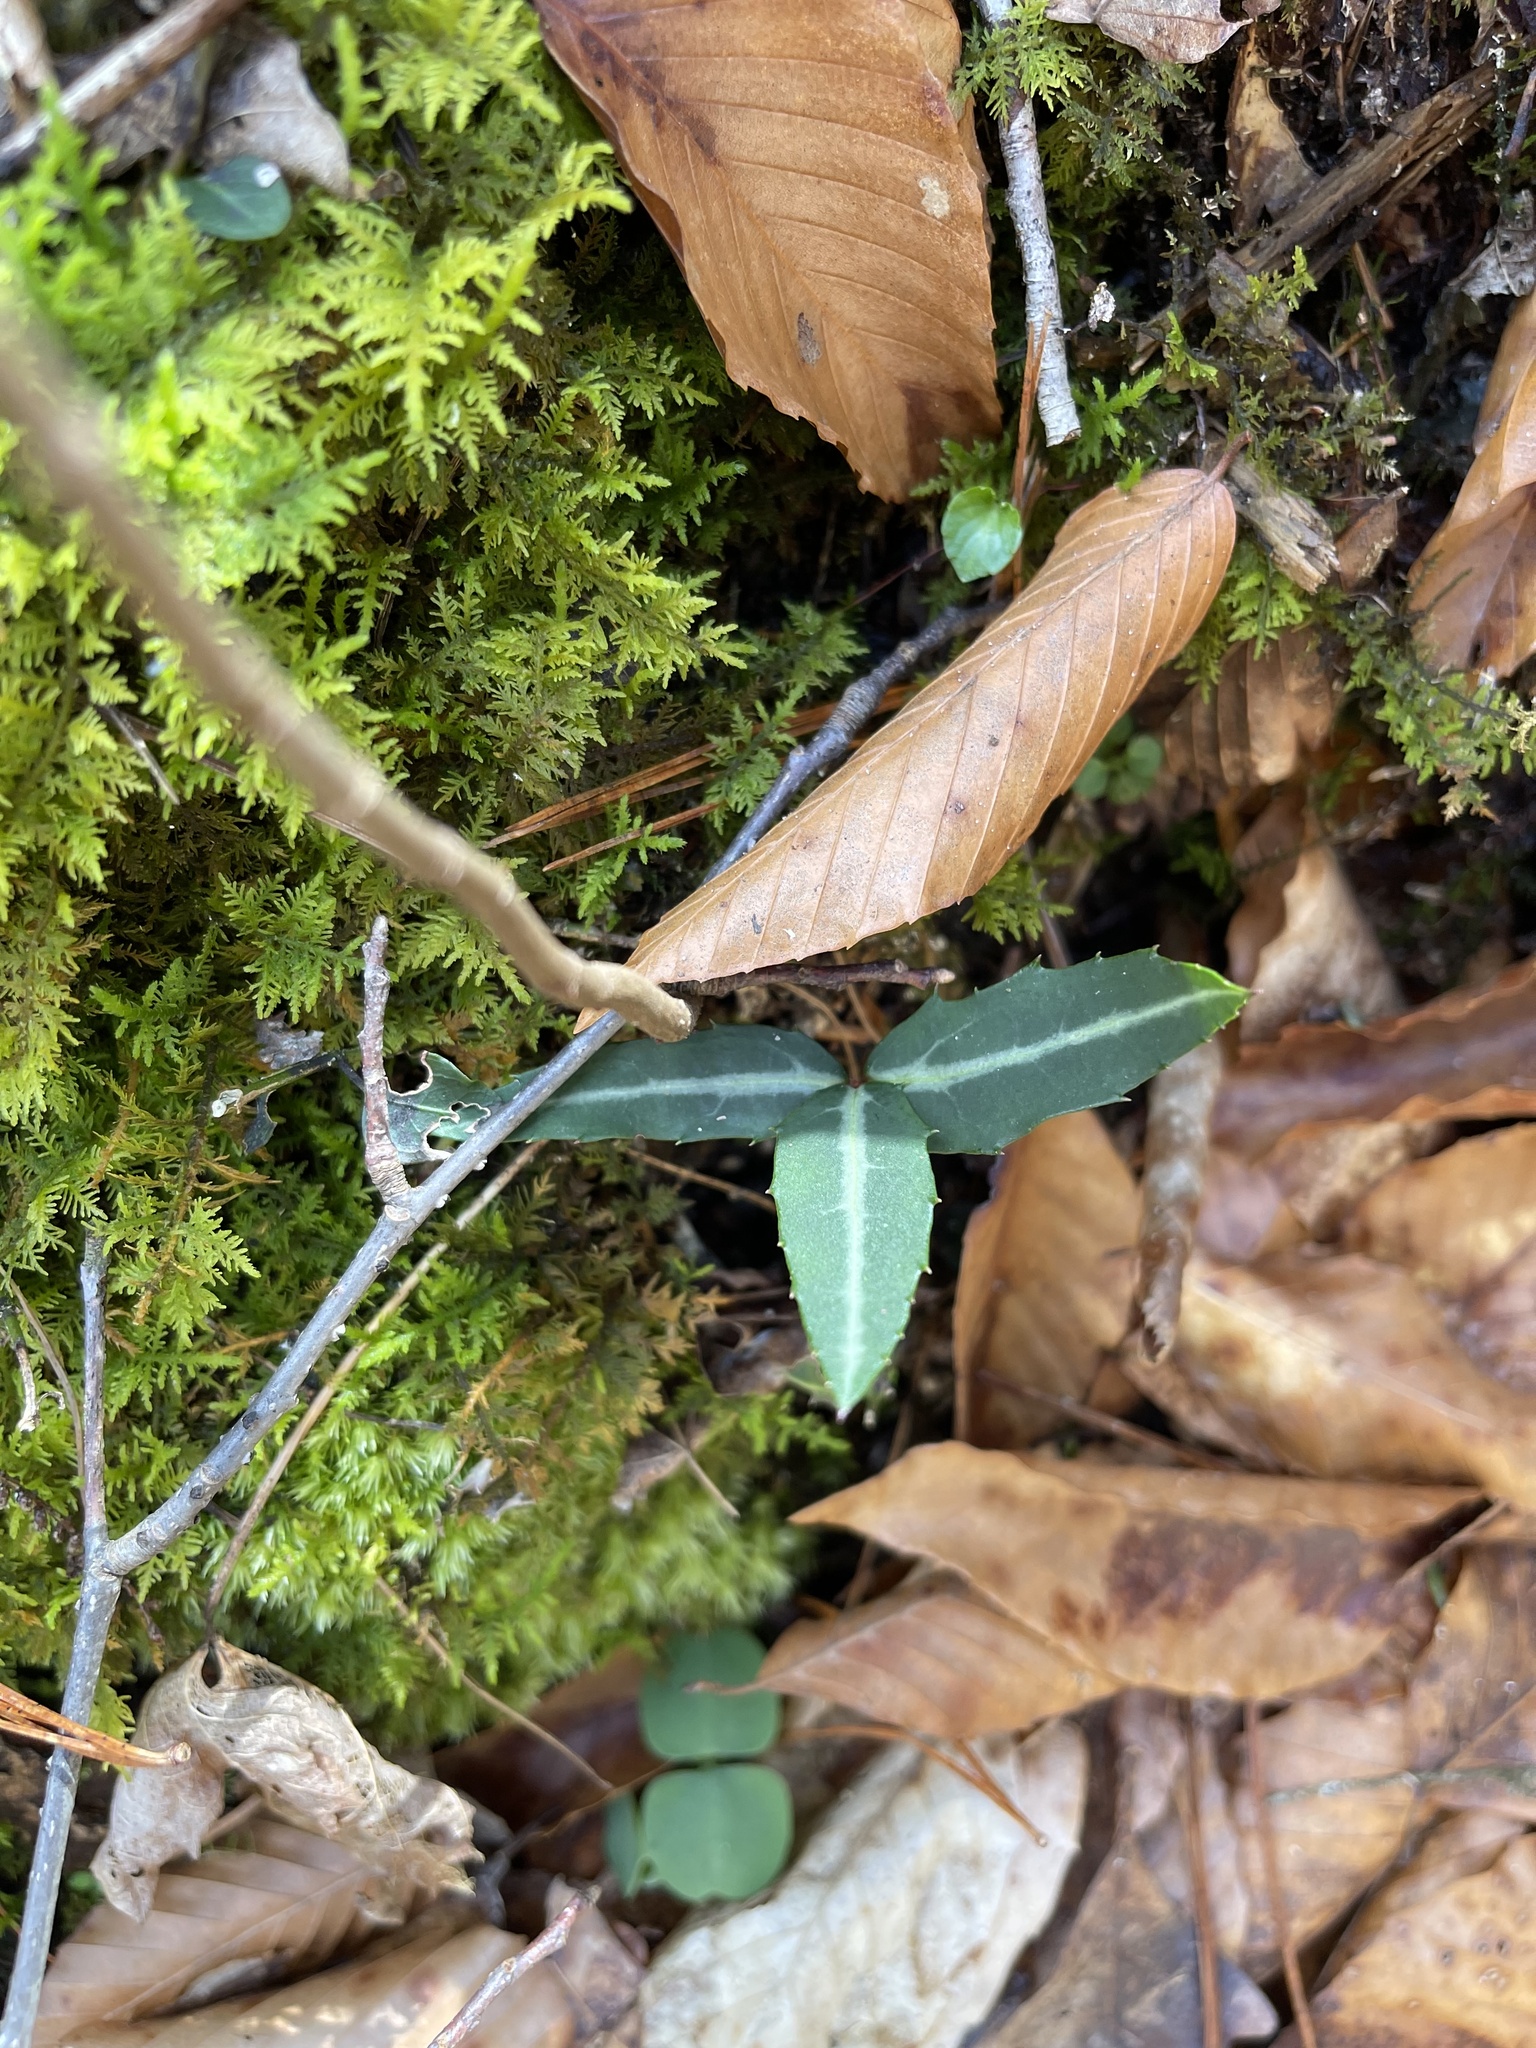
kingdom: Plantae
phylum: Tracheophyta
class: Magnoliopsida
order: Ericales
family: Ericaceae
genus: Chimaphila
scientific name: Chimaphila maculata
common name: Spotted pipsissewa
